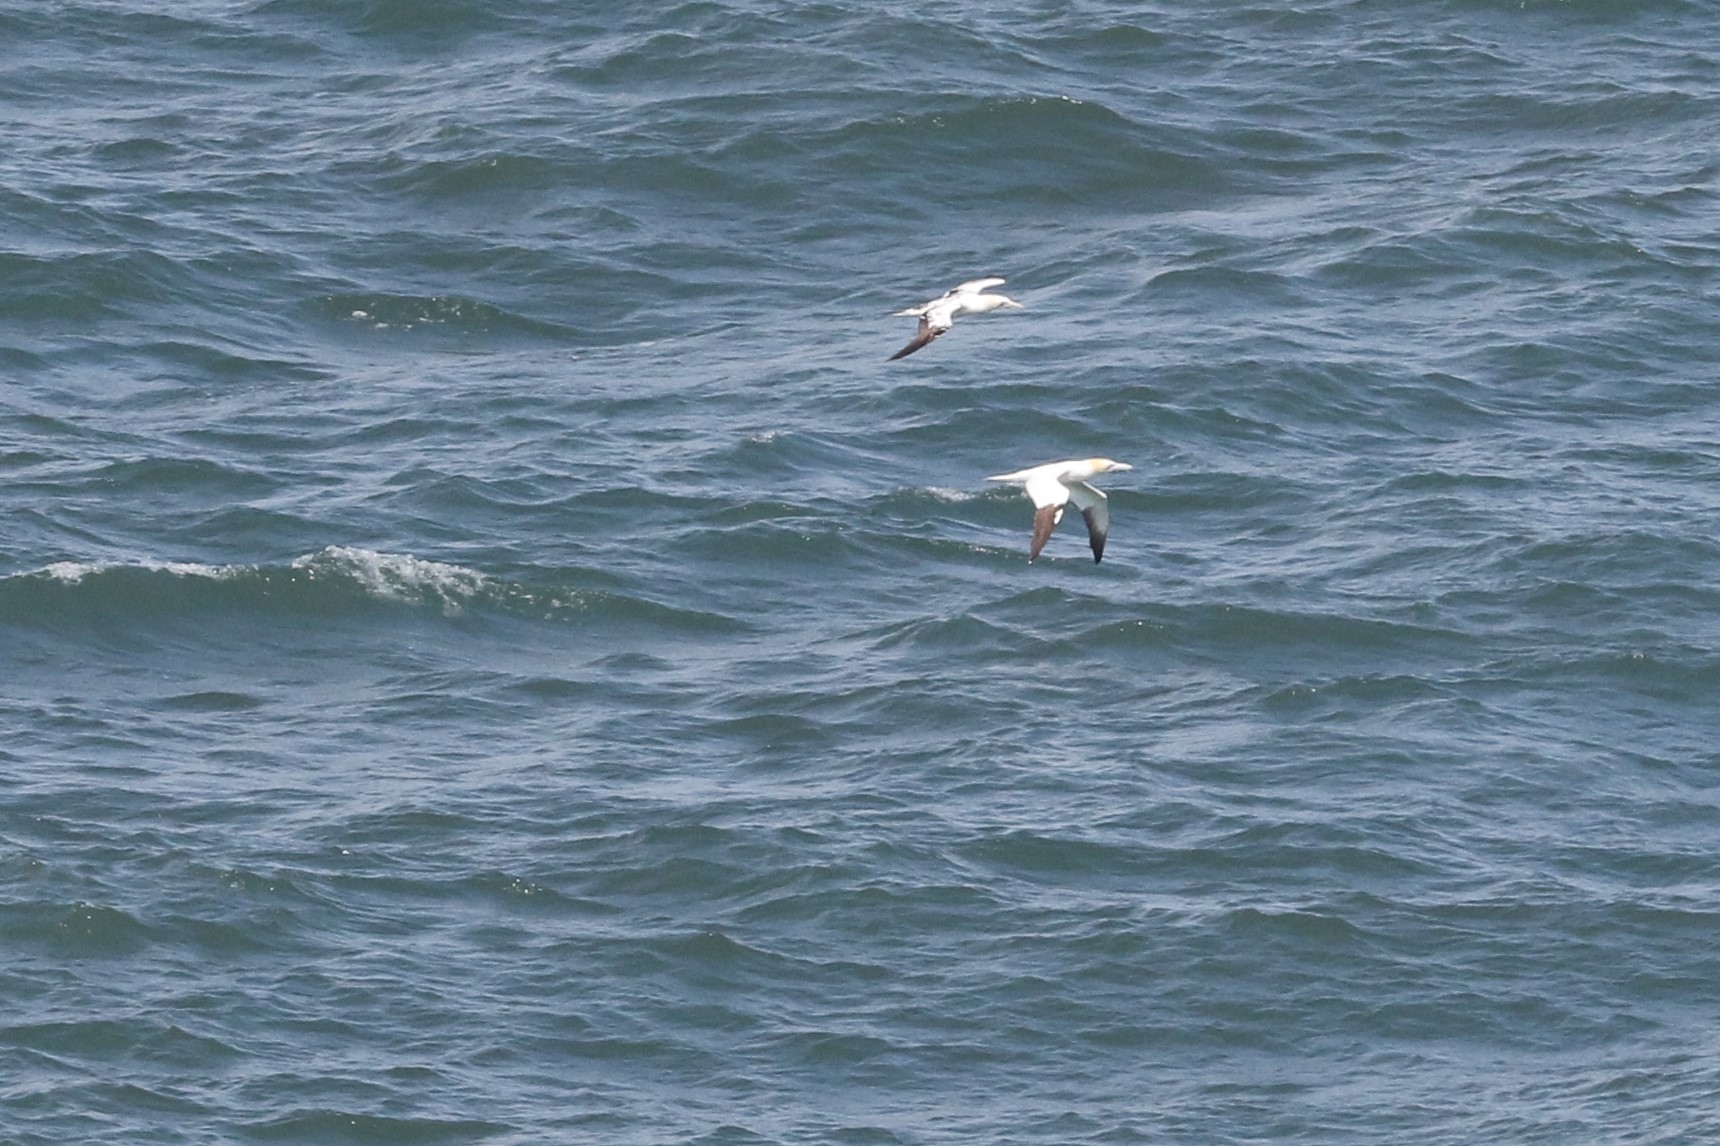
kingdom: Animalia
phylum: Chordata
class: Aves
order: Suliformes
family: Sulidae
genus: Morus
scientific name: Morus bassanus
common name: Northern gannet
